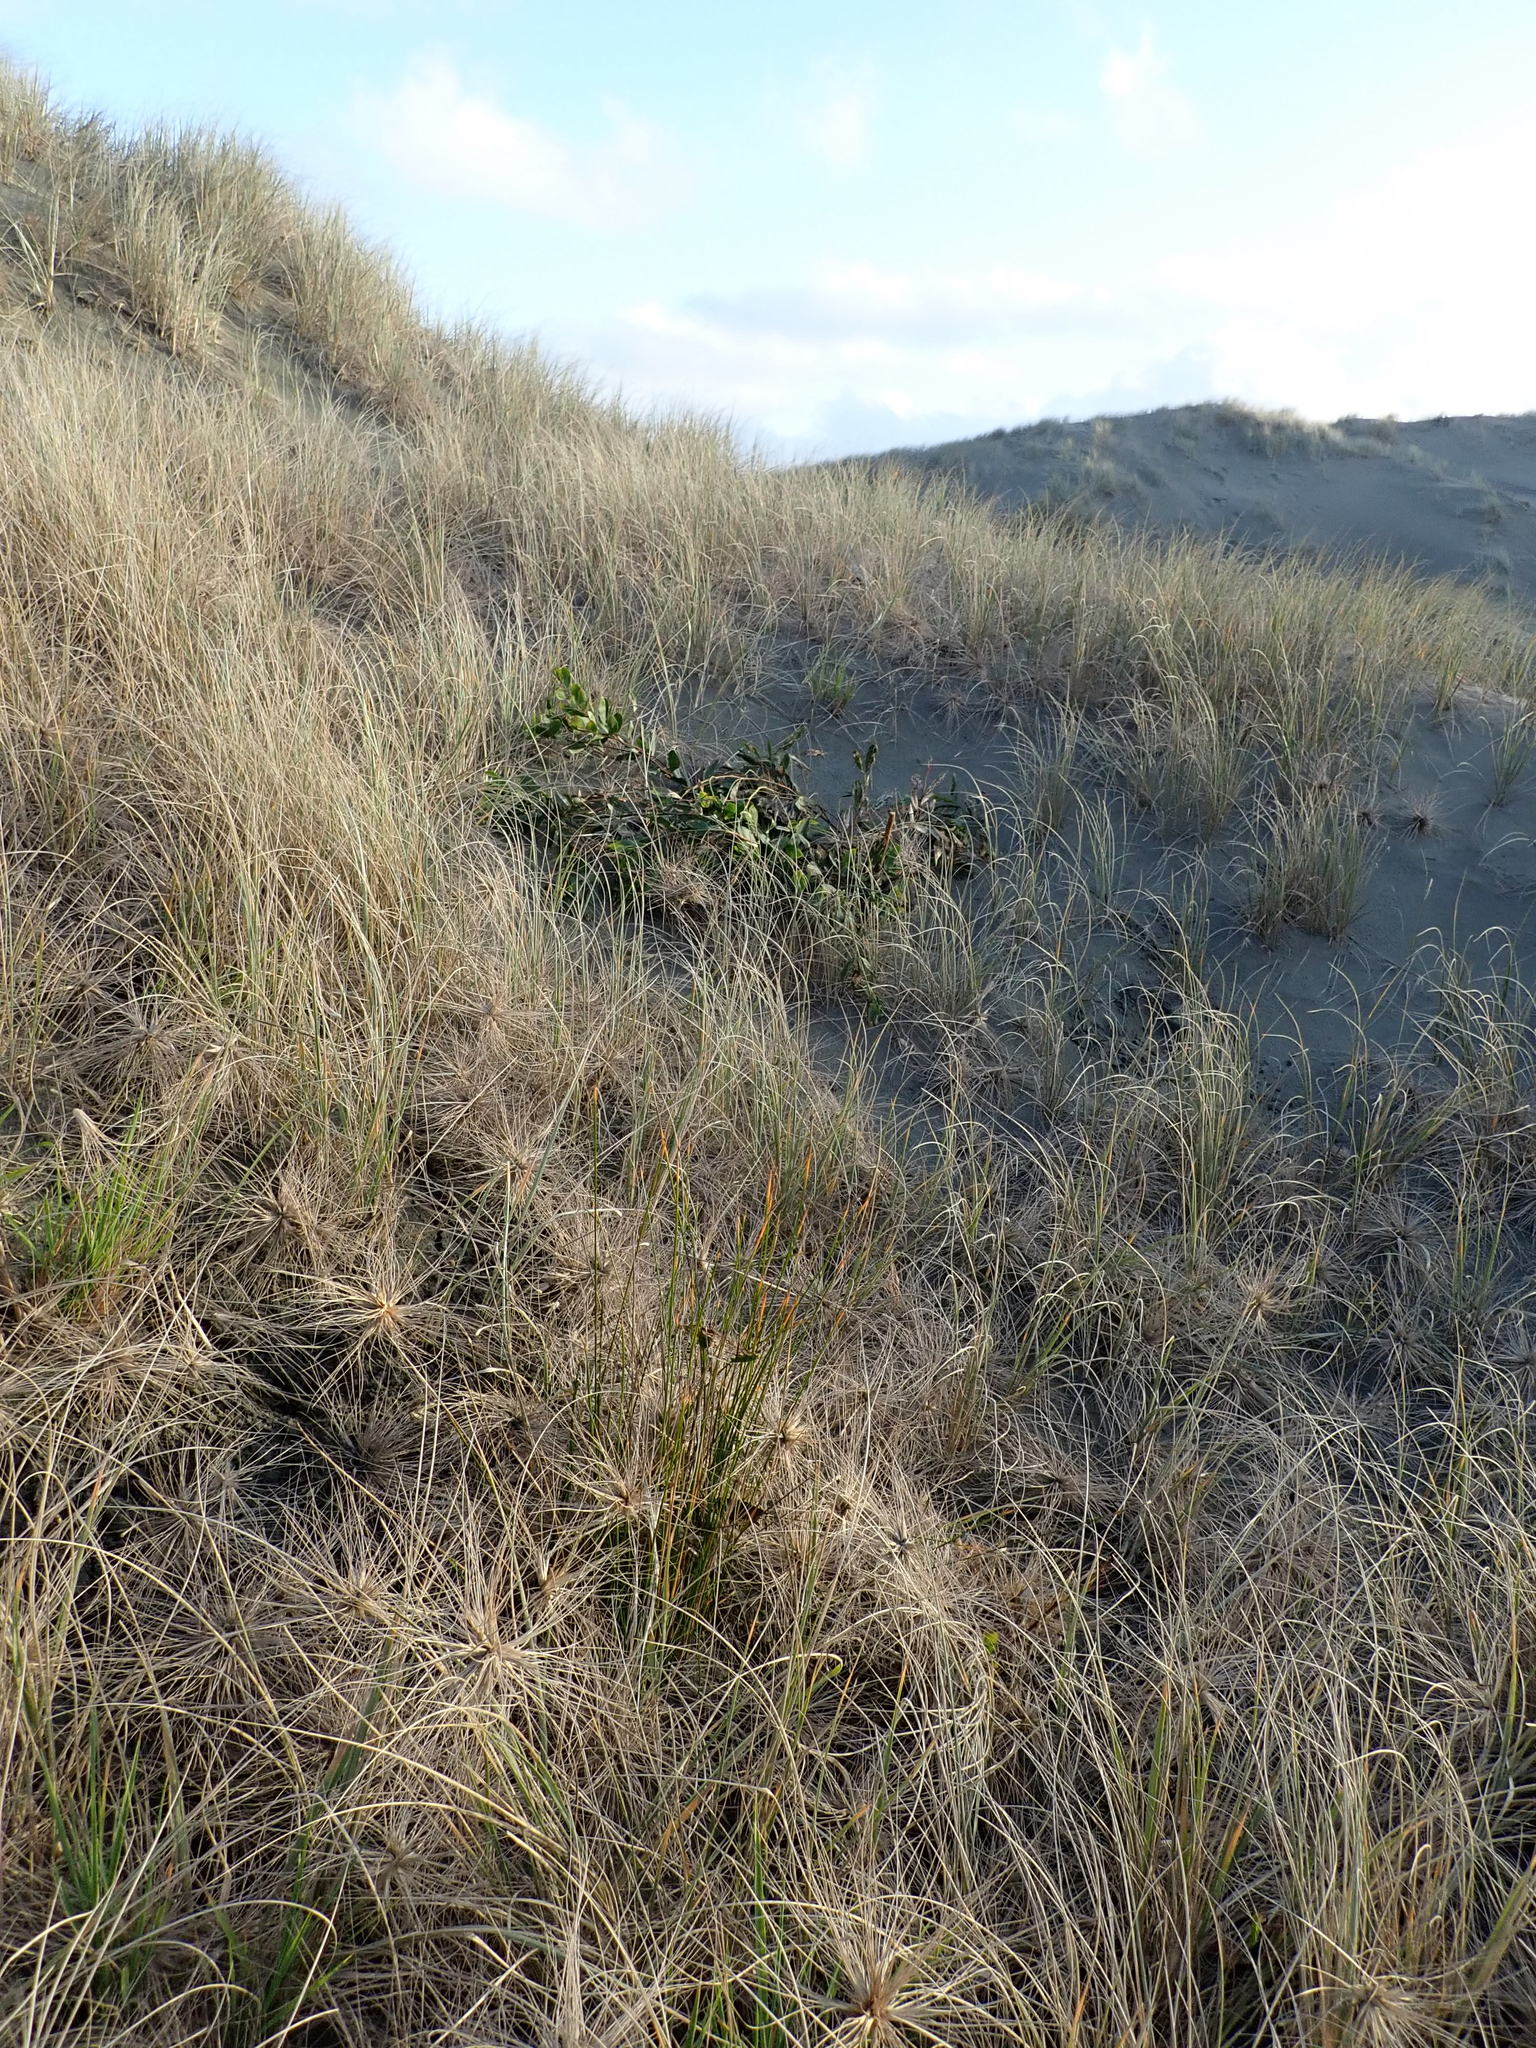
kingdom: Plantae
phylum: Tracheophyta
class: Magnoliopsida
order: Fabales
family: Fabaceae
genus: Acacia
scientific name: Acacia longifolia
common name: Sydney golden wattle
